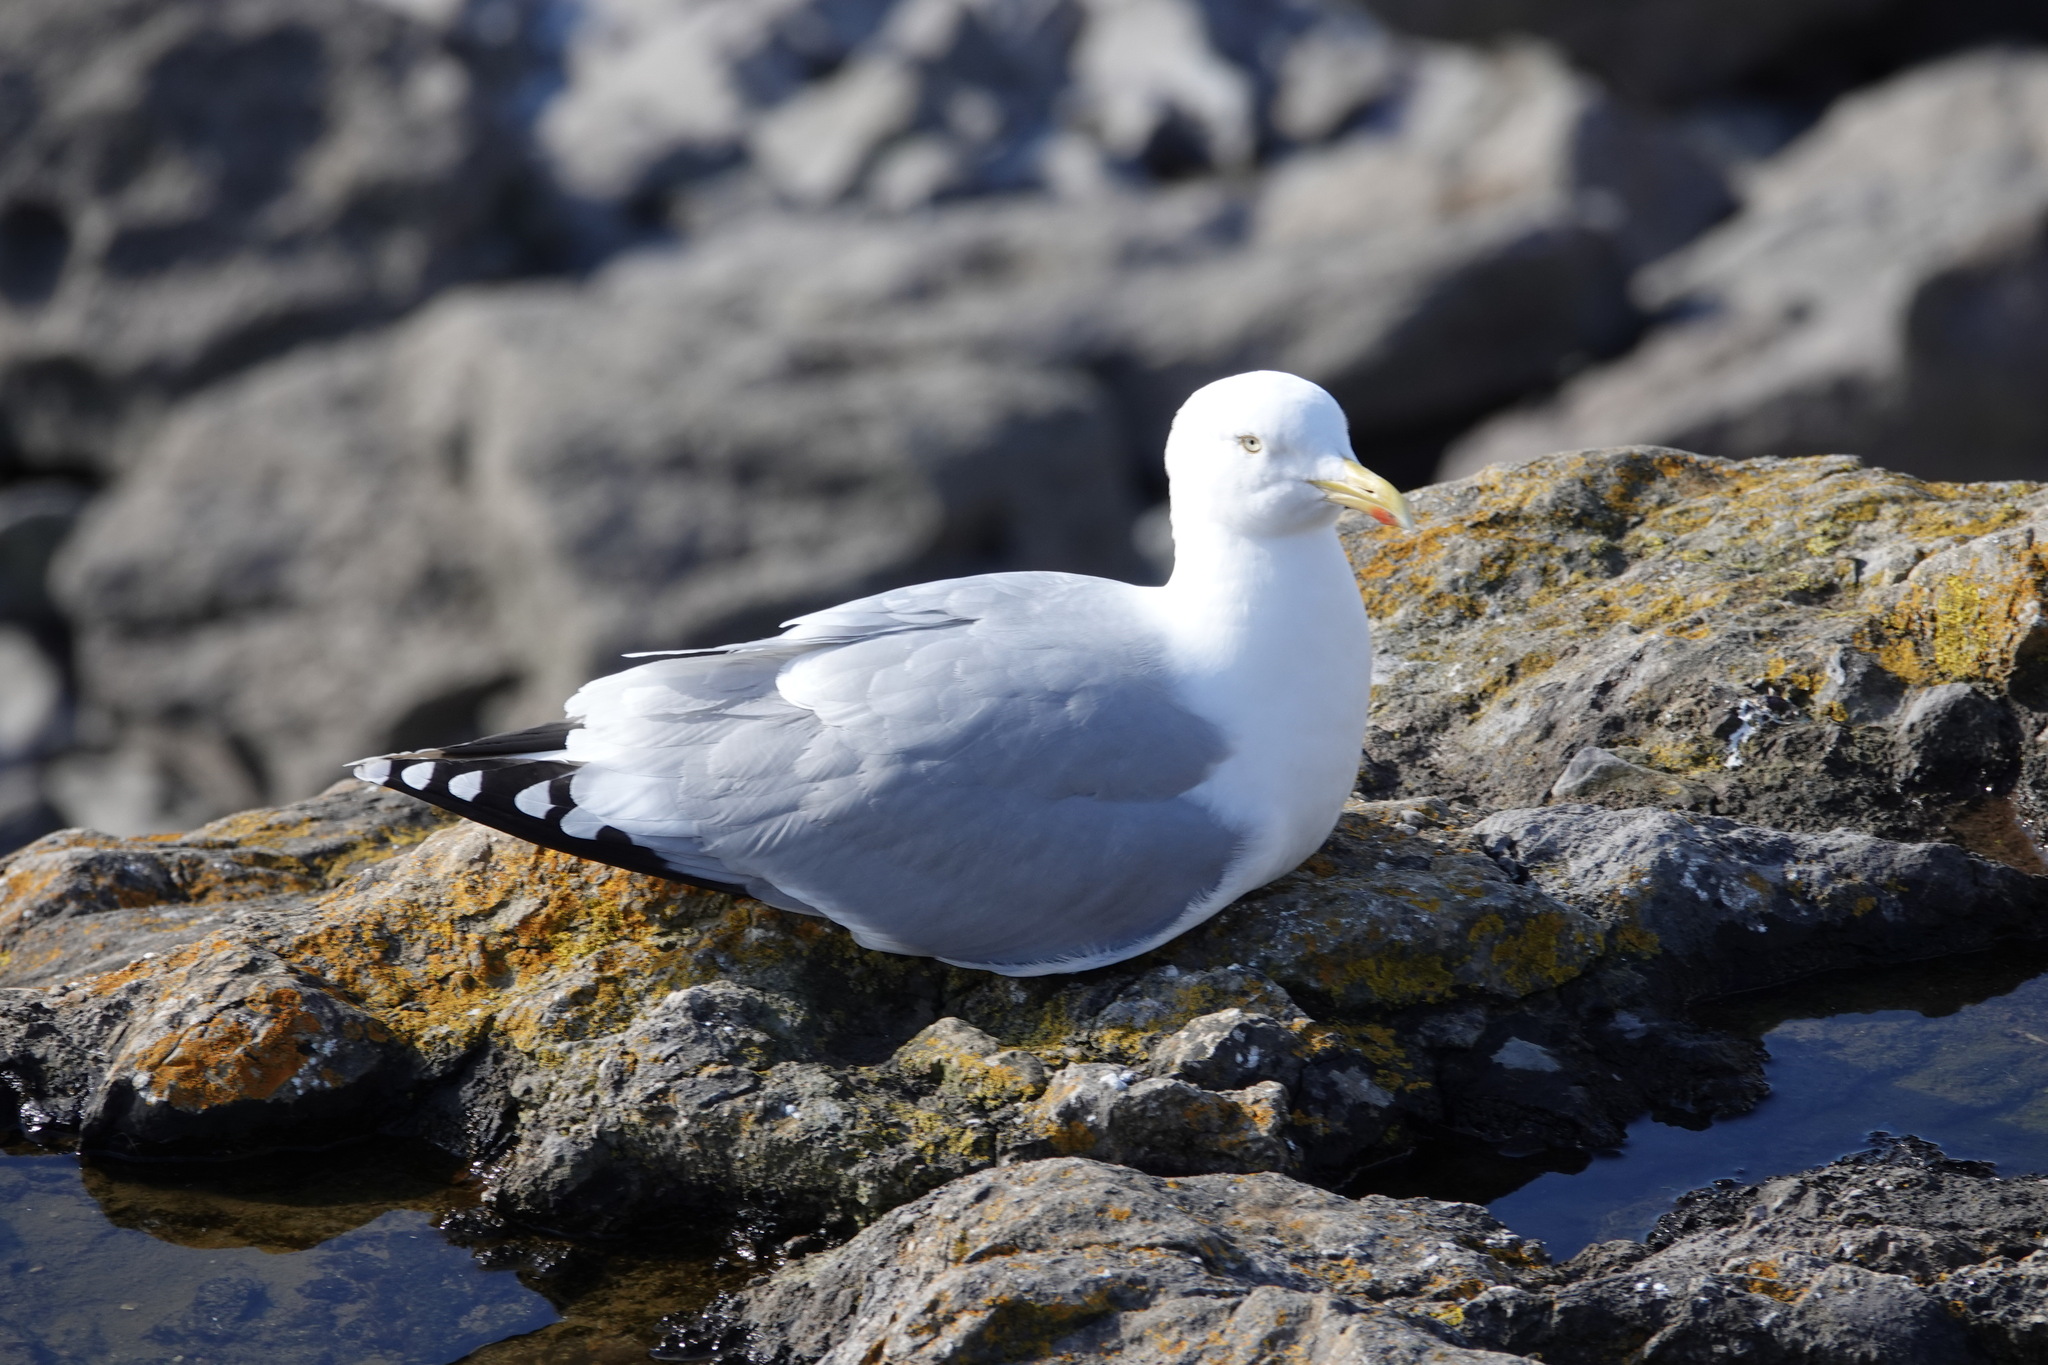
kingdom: Animalia
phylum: Chordata
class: Aves
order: Charadriiformes
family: Laridae
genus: Larus
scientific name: Larus argentatus
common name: Herring gull
